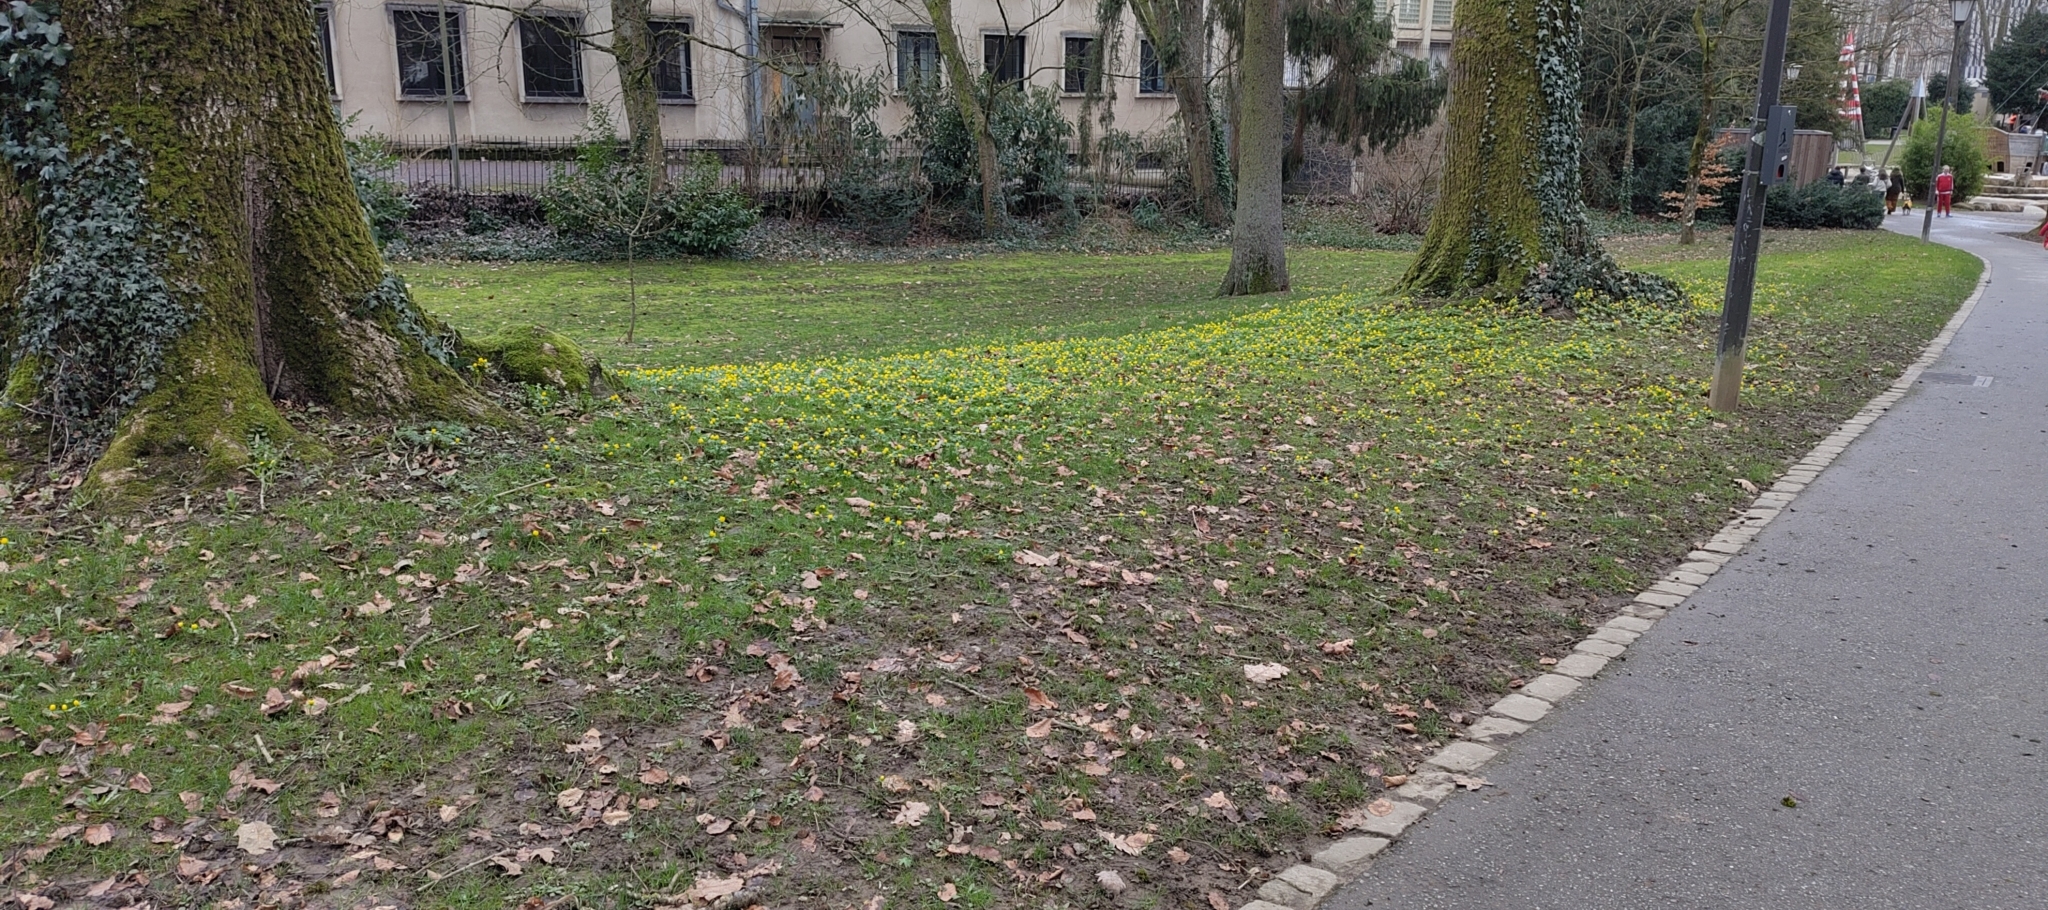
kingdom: Plantae
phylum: Tracheophyta
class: Magnoliopsida
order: Ranunculales
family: Ranunculaceae
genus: Eranthis
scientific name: Eranthis hyemalis
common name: Winter aconite
